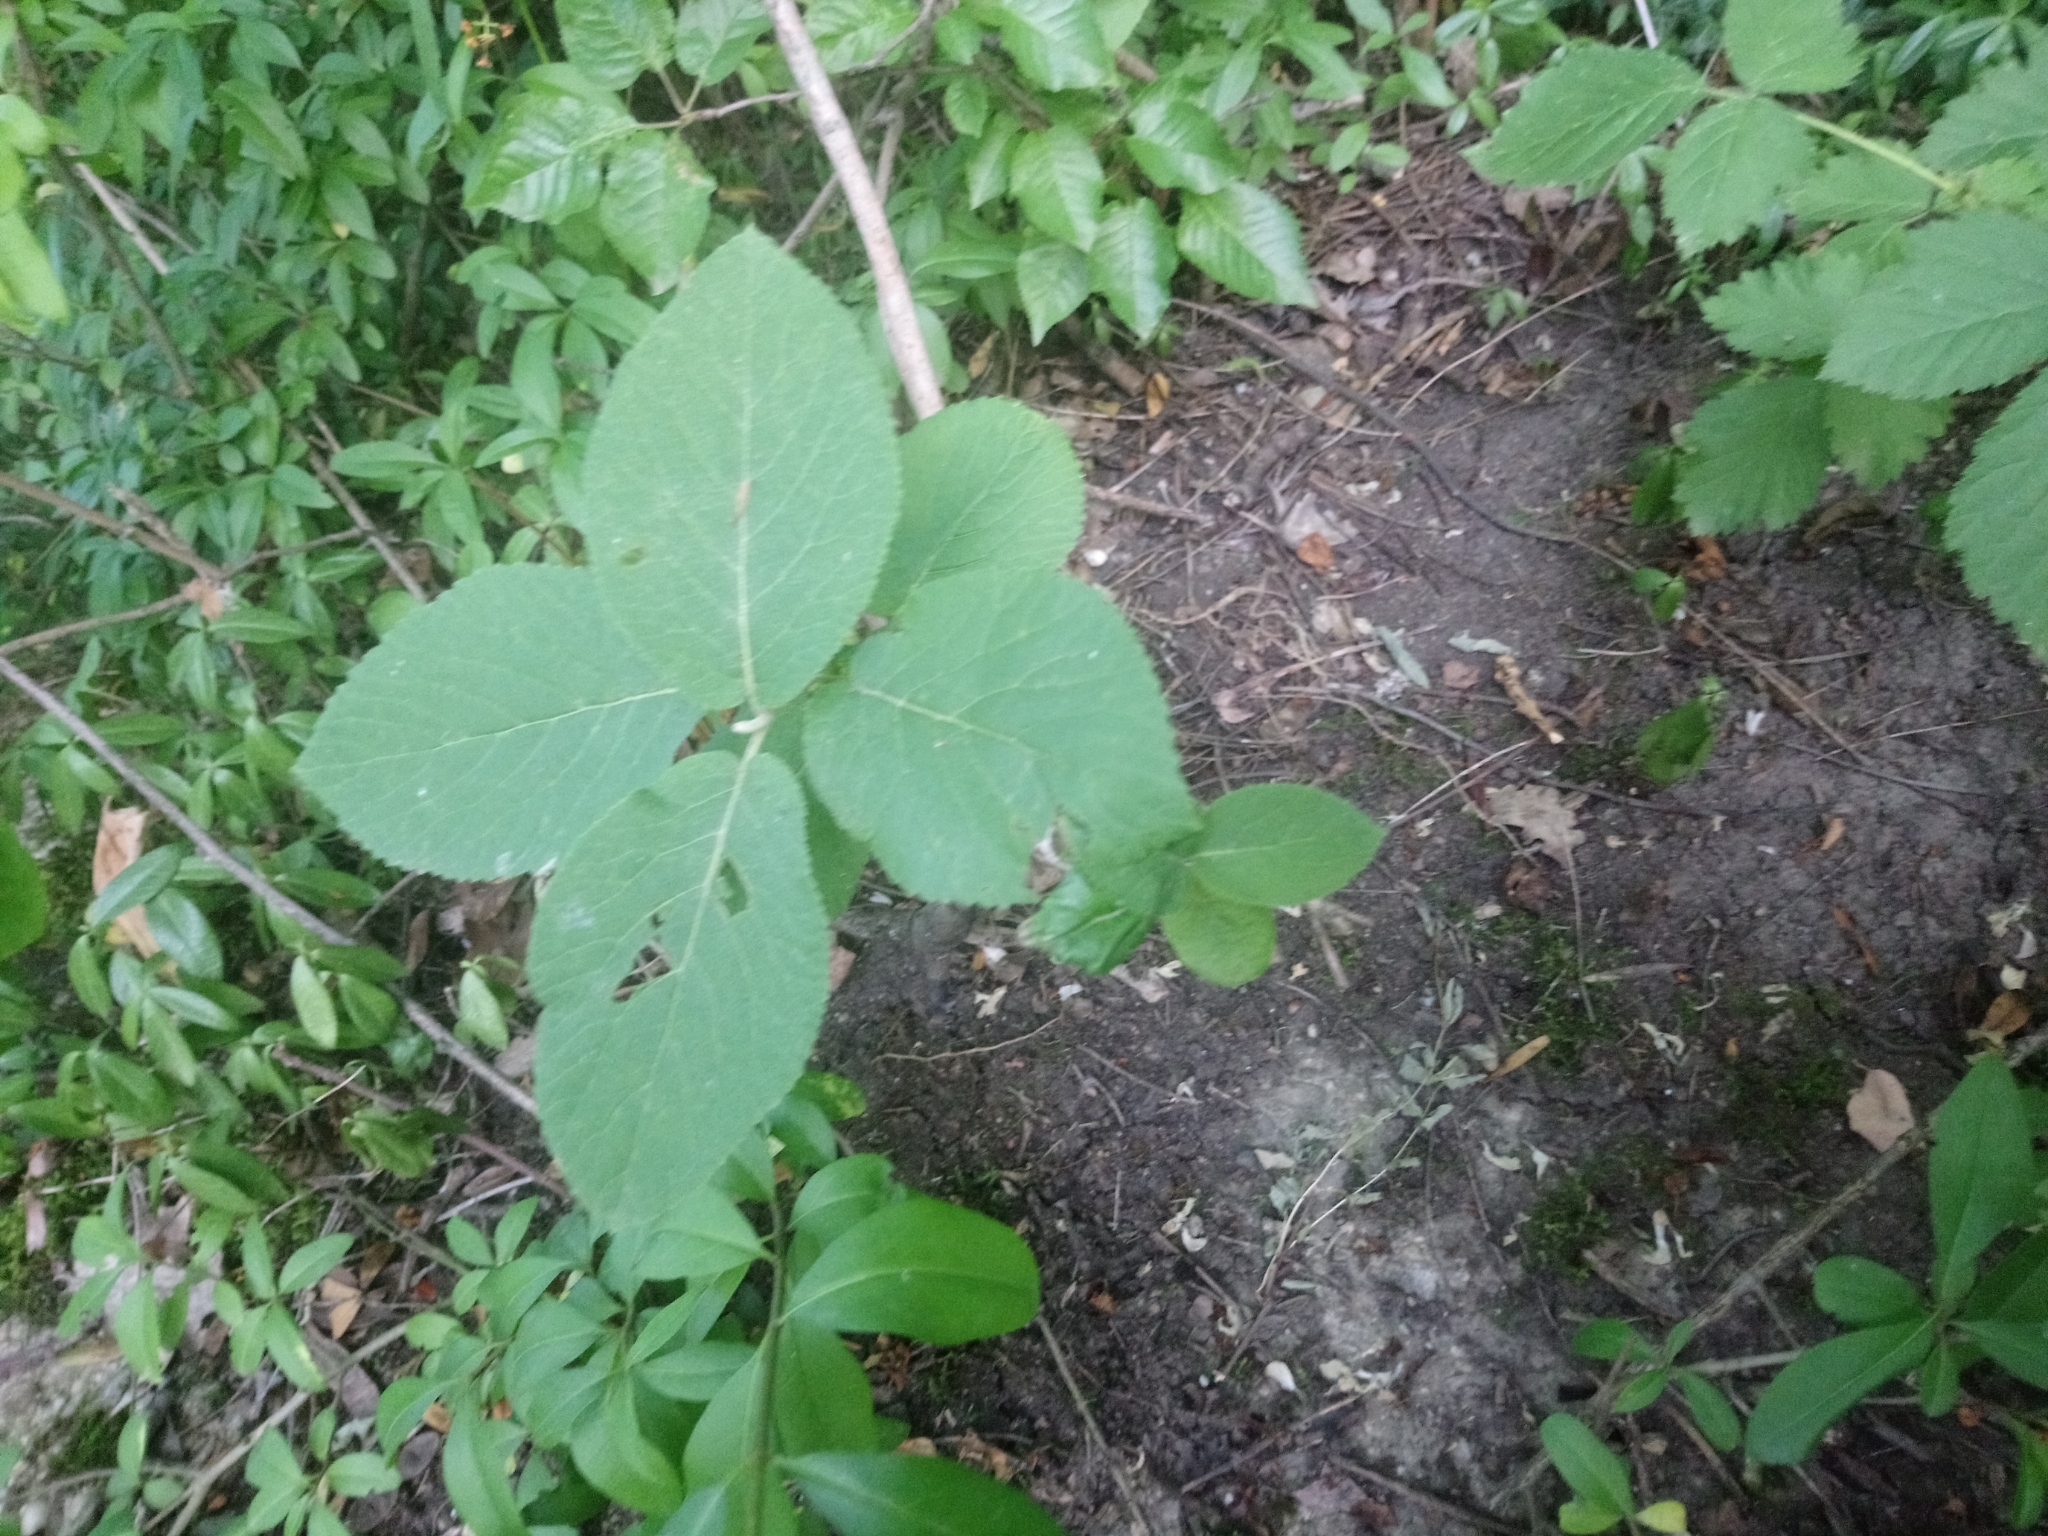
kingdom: Plantae
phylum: Tracheophyta
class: Magnoliopsida
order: Dipsacales
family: Viburnaceae
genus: Viburnum
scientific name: Viburnum lantana
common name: Wayfaring tree
